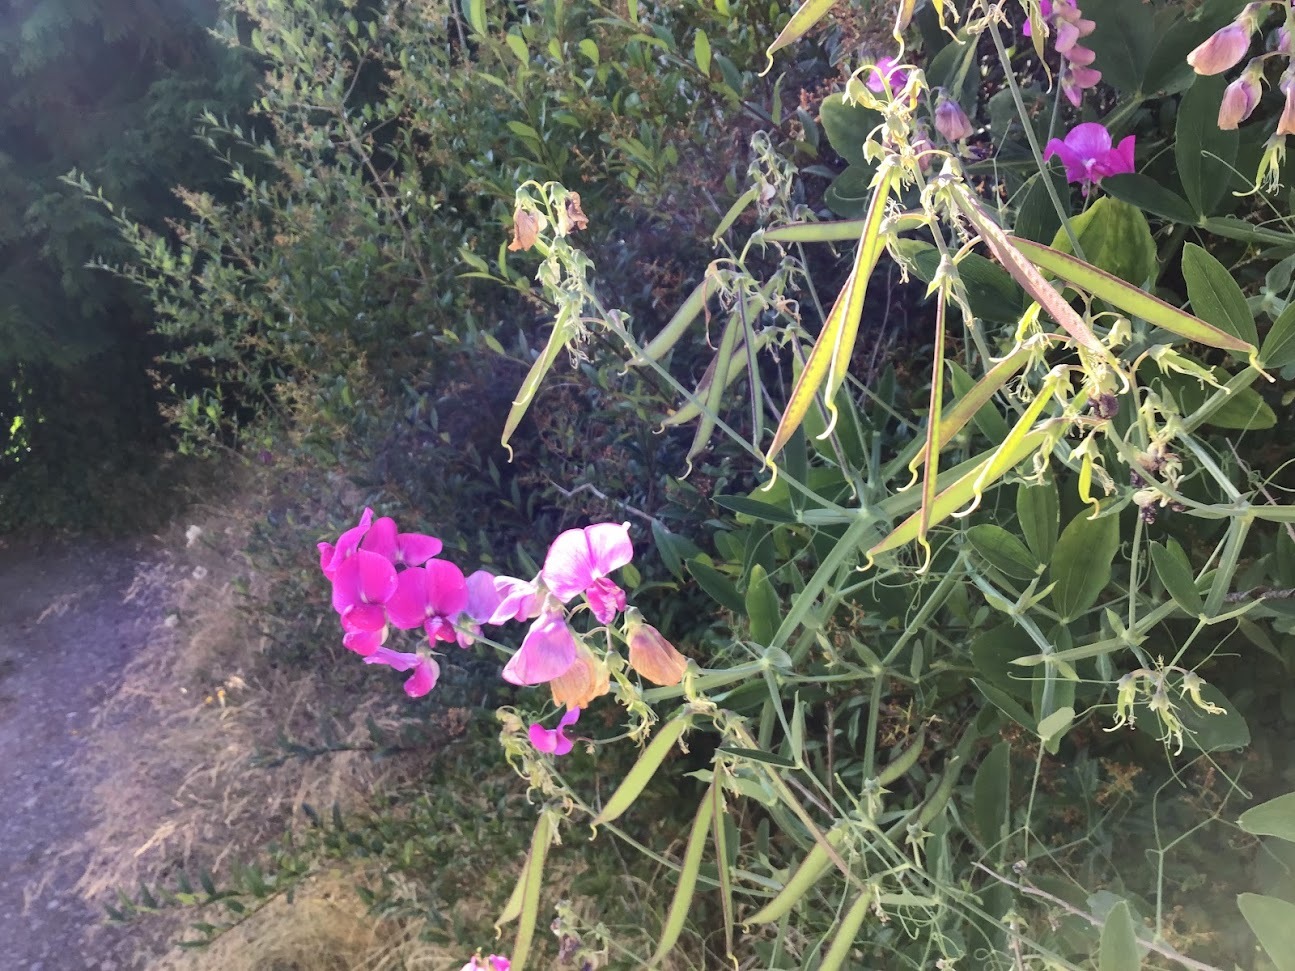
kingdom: Plantae
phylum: Tracheophyta
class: Magnoliopsida
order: Fabales
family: Fabaceae
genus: Lathyrus
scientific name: Lathyrus latifolius
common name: Perennial pea
